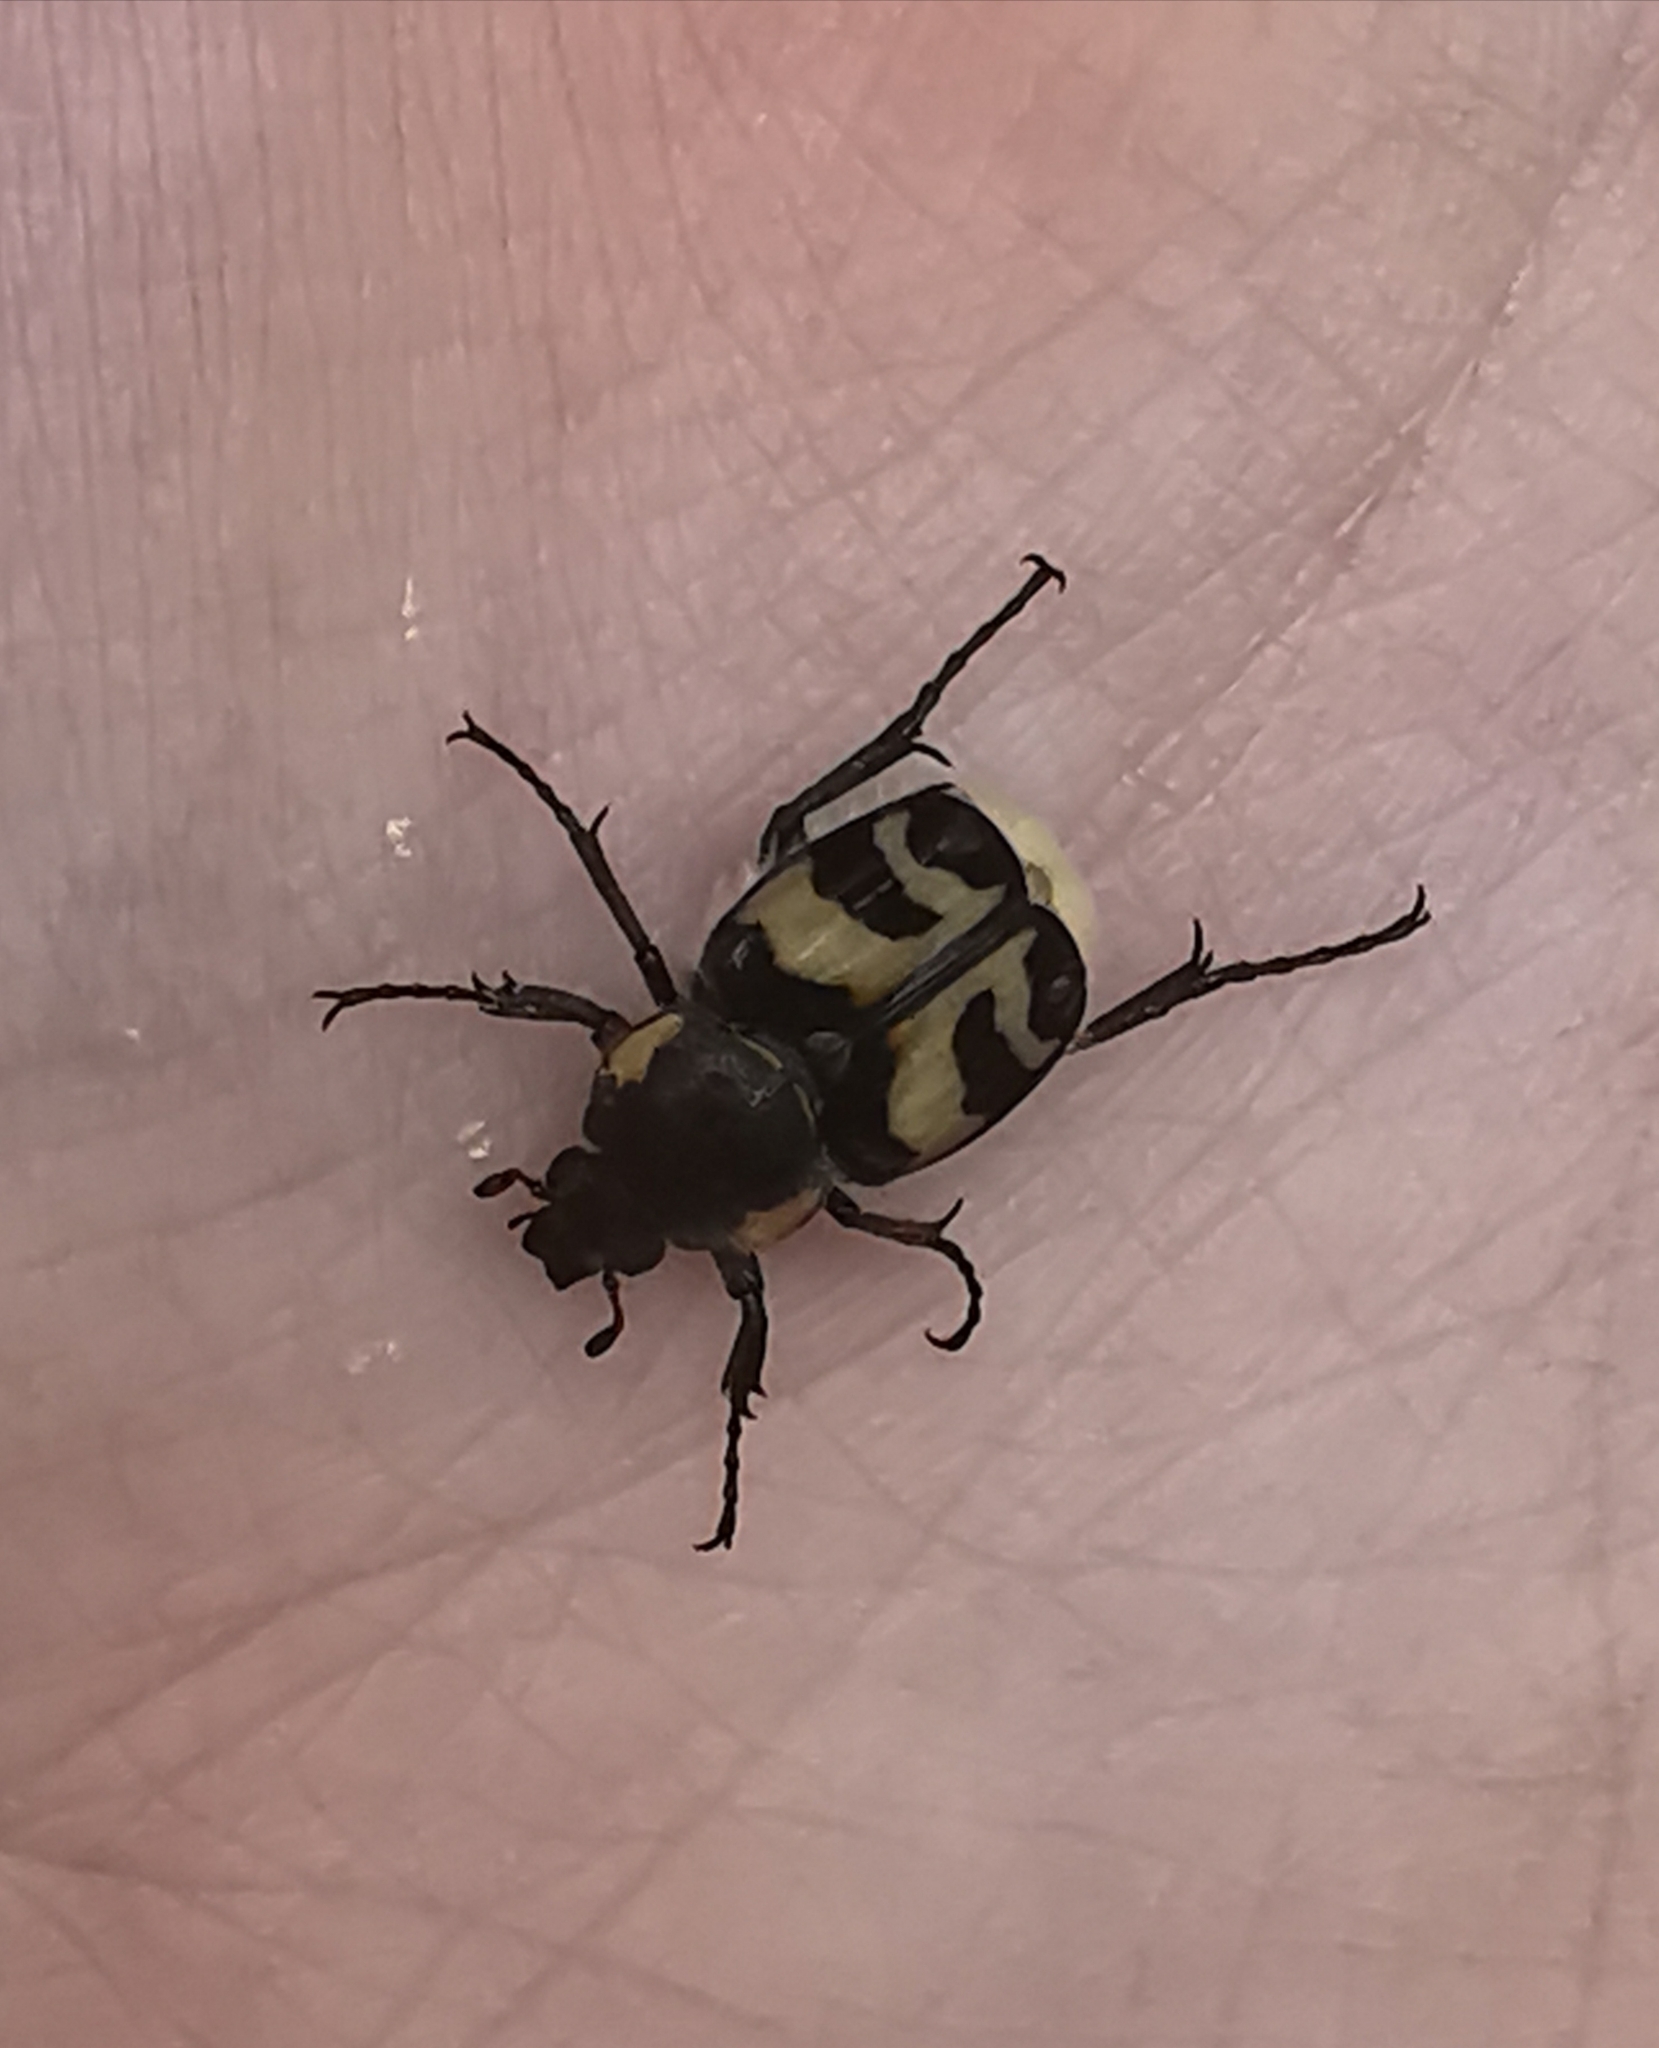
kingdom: Animalia
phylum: Arthropoda
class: Insecta
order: Coleoptera
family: Scarabaeidae
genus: Trichius
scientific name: Trichius fasciatus
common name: Bee beetle
